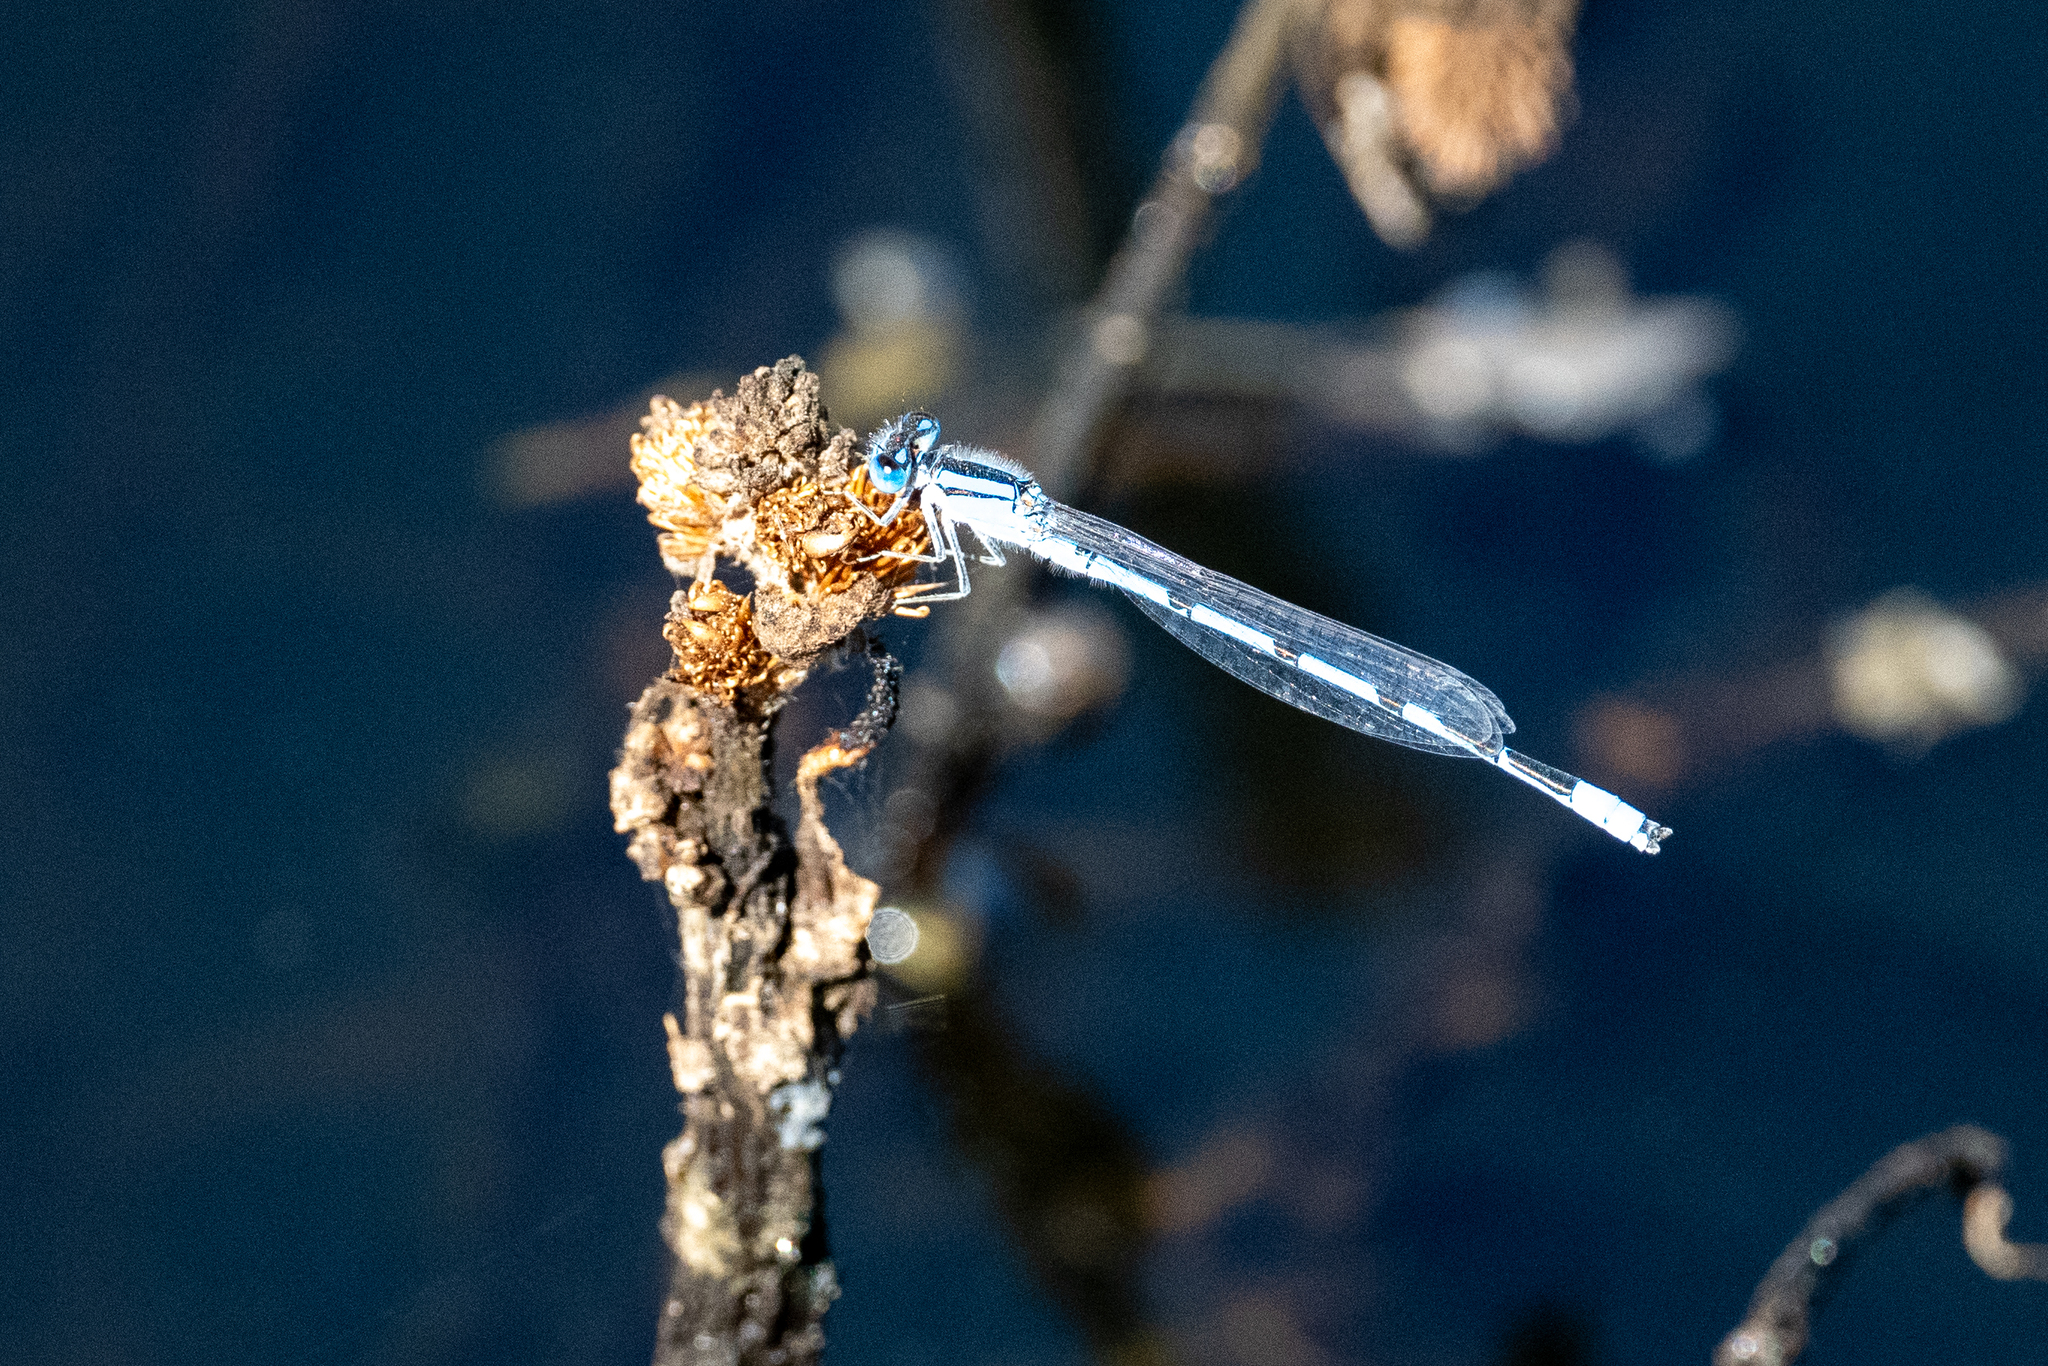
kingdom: Animalia
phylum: Arthropoda
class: Insecta
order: Odonata
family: Coenagrionidae
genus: Enallagma
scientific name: Enallagma civile
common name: Damselfly
